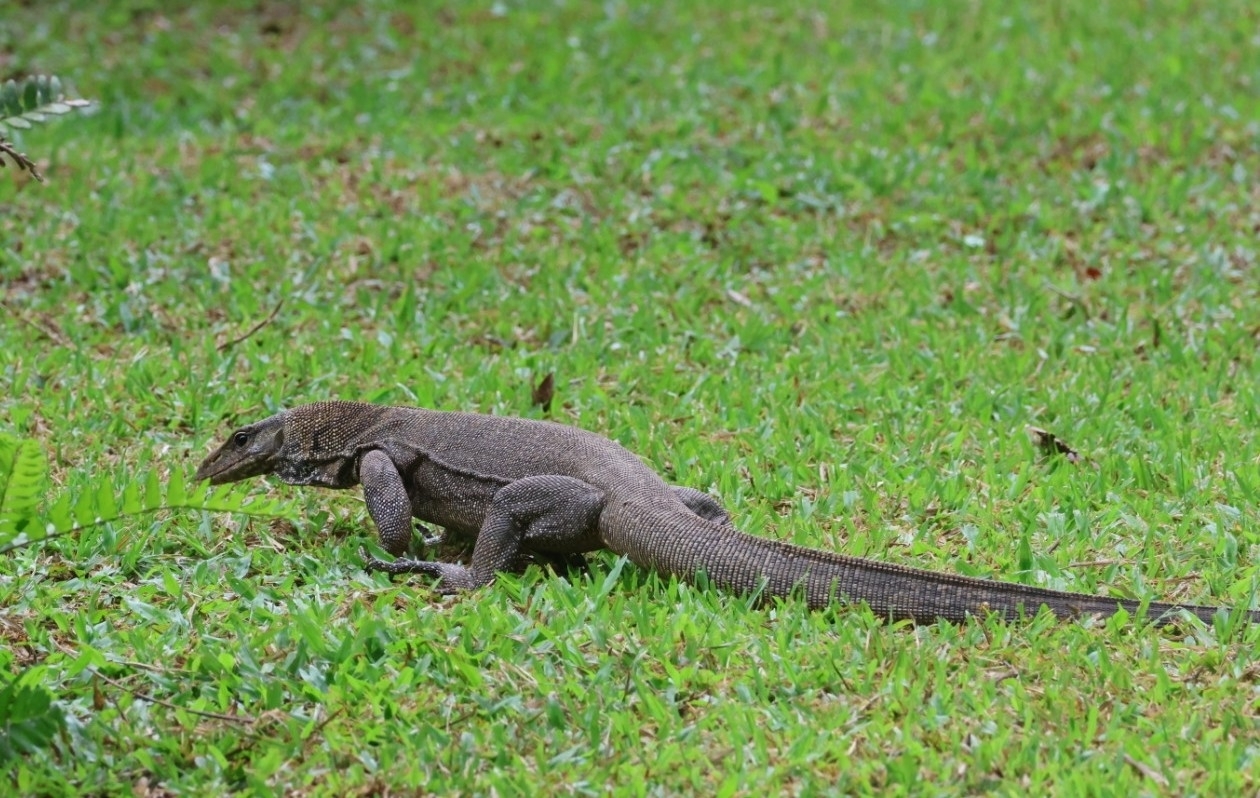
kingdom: Animalia
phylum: Chordata
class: Squamata
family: Varanidae
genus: Varanus
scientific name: Varanus nebulosus
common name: Clouded monitor
